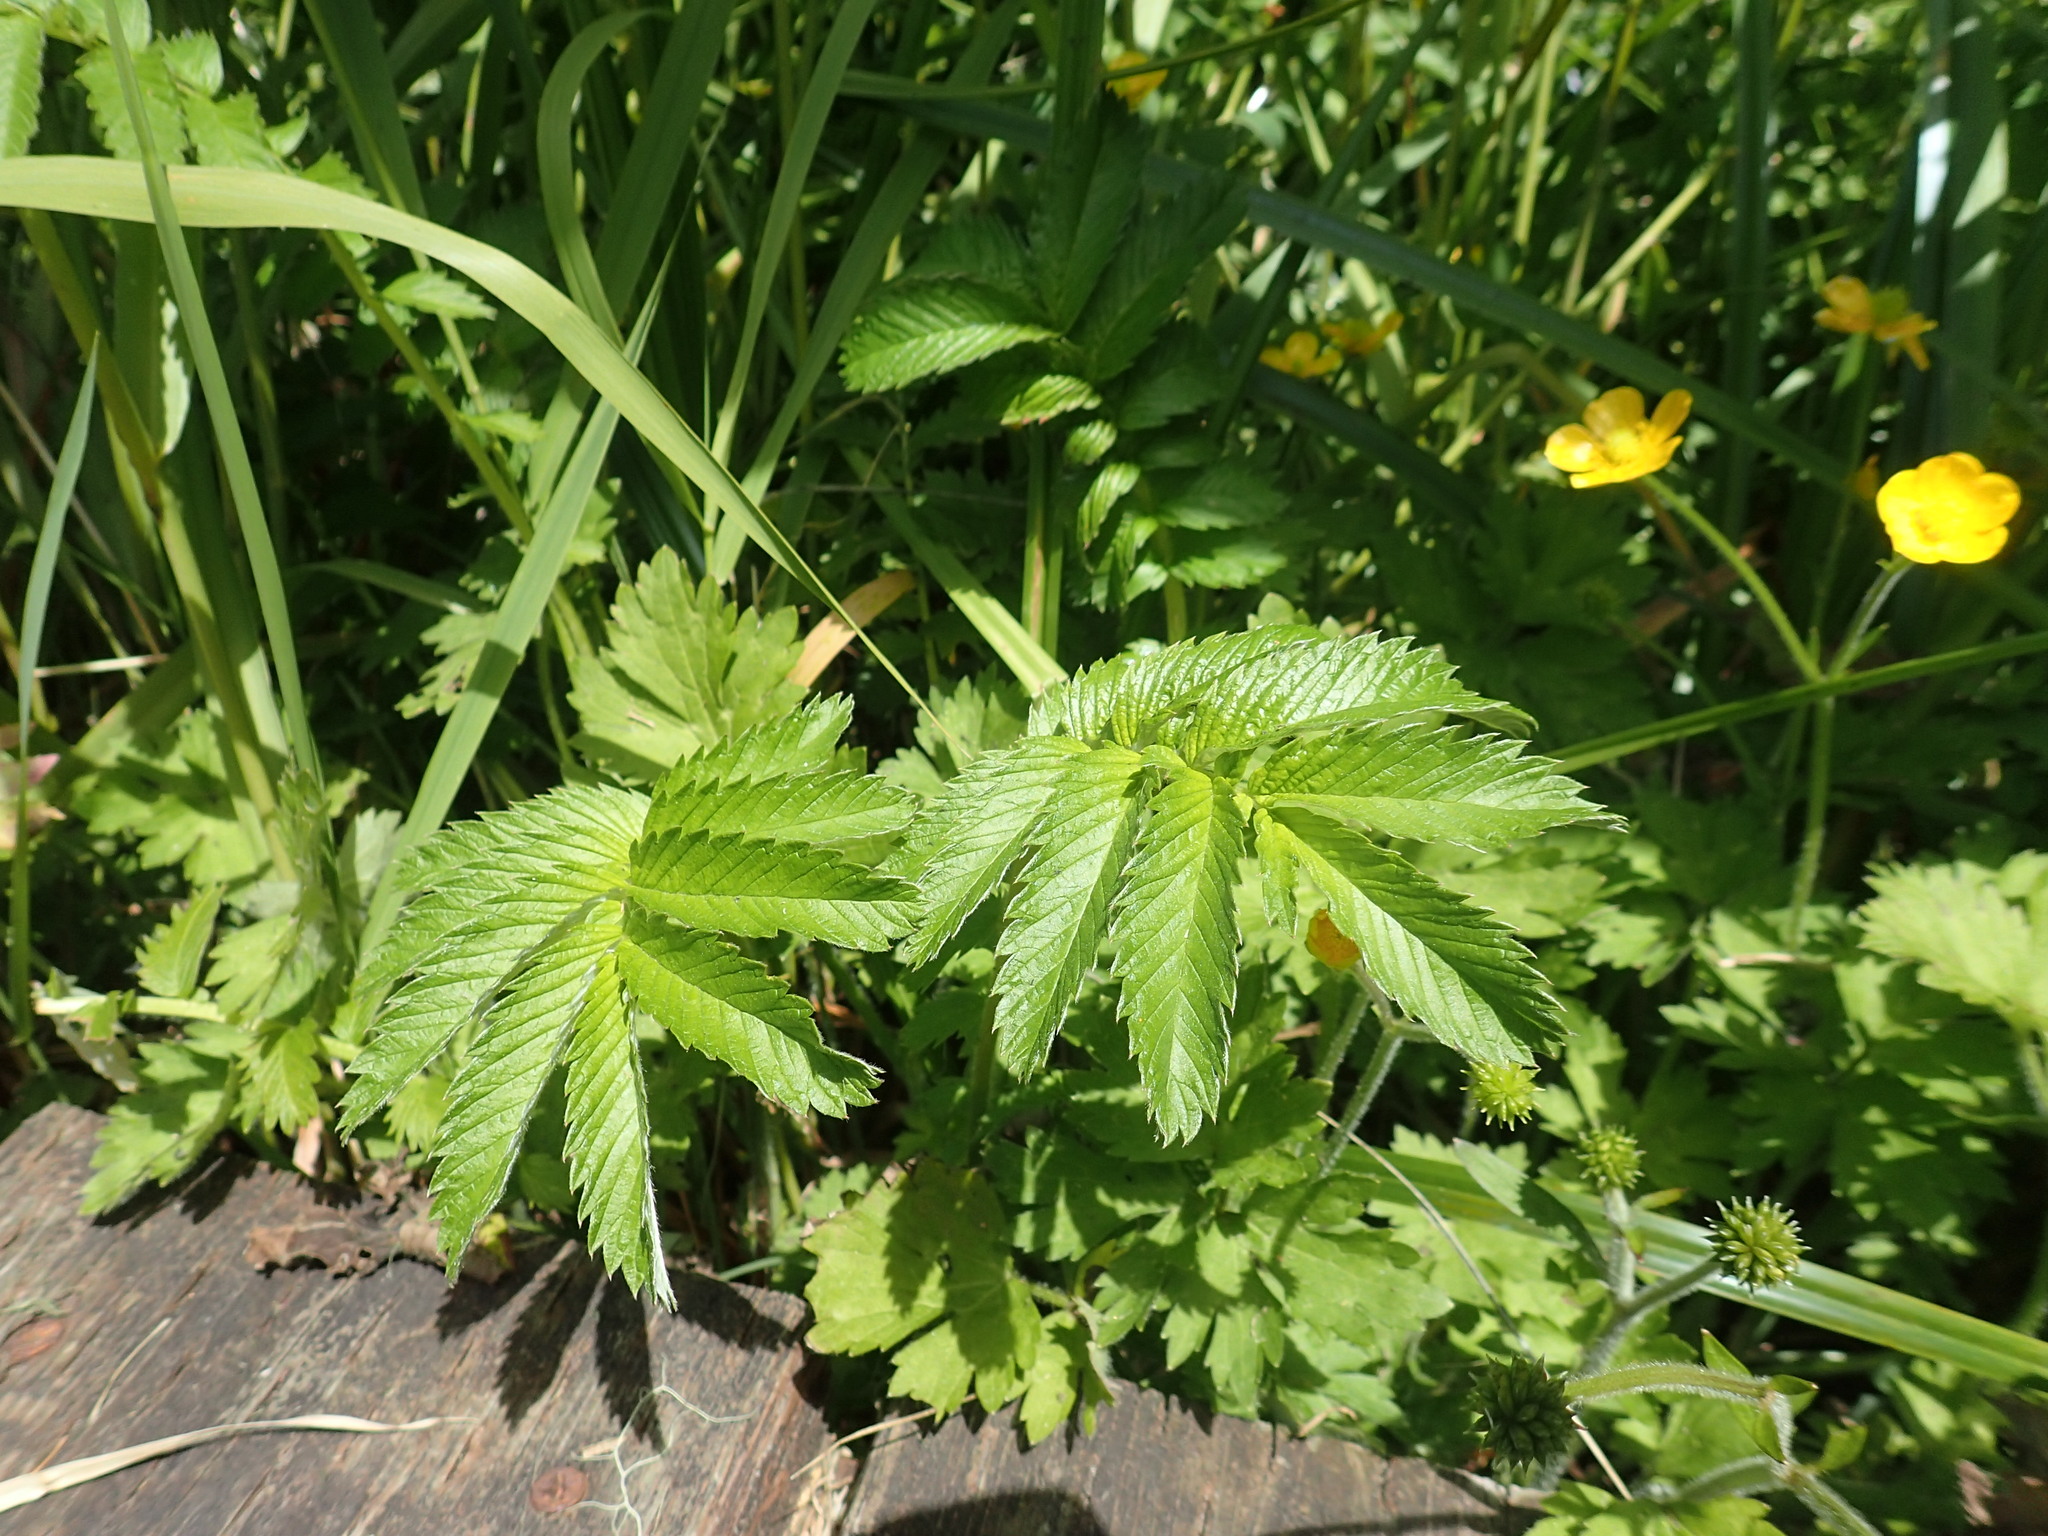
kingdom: Plantae
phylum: Tracheophyta
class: Magnoliopsida
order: Rosales
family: Rosaceae
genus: Argentina
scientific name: Argentina anserina
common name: Common silverweed
